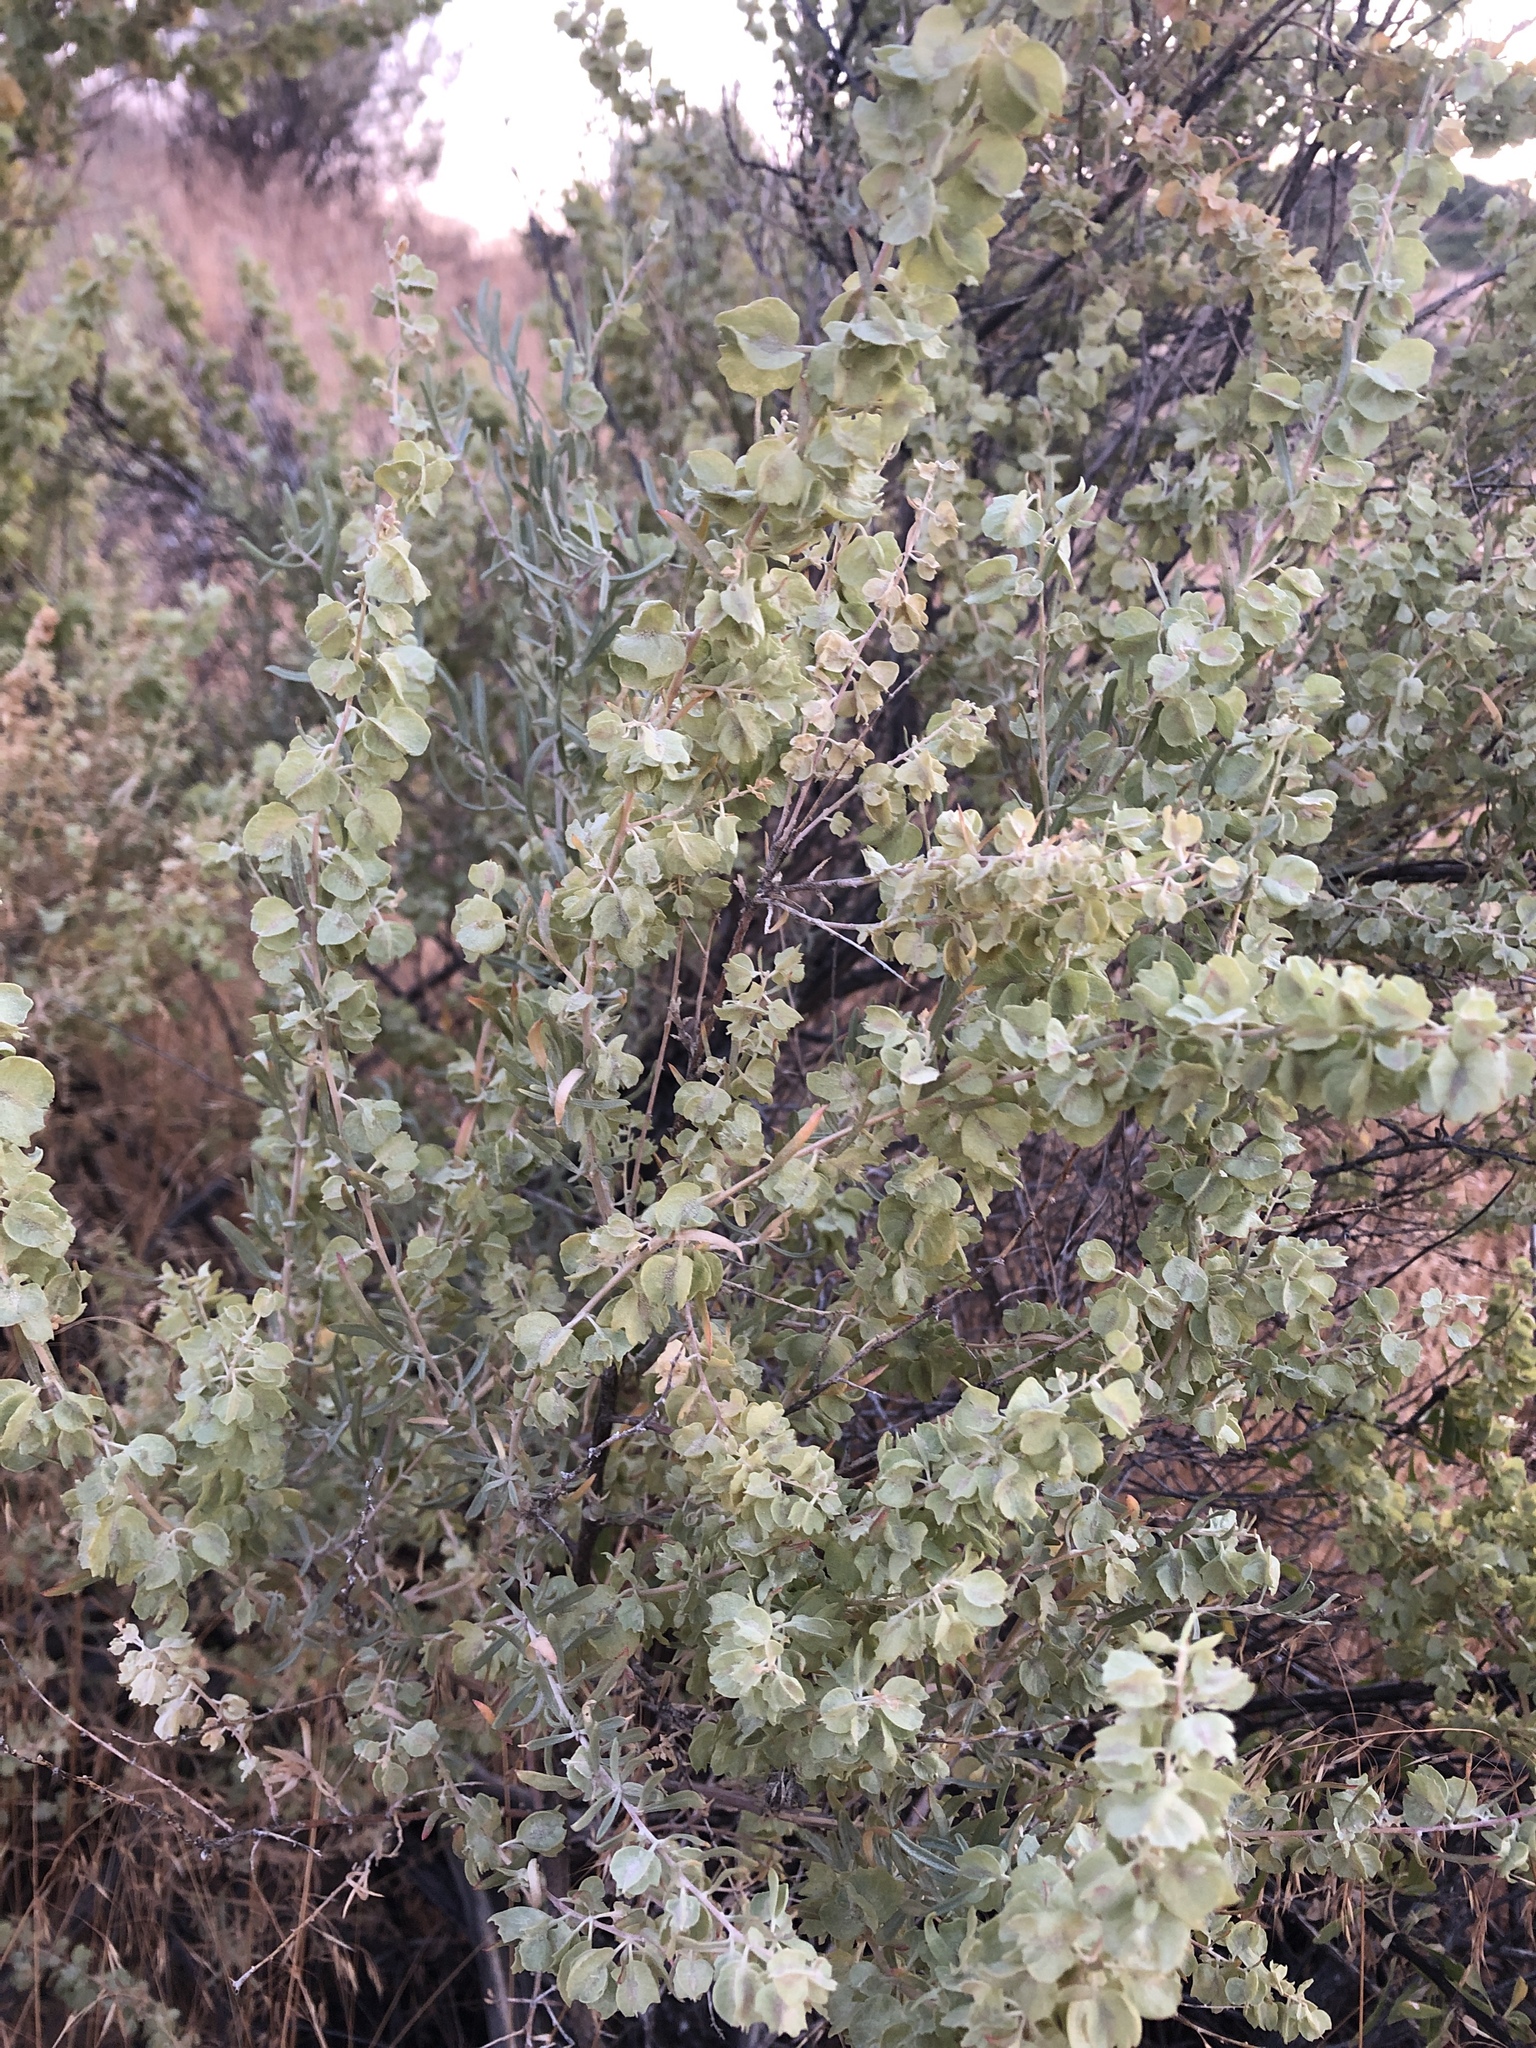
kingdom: Plantae
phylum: Tracheophyta
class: Magnoliopsida
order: Caryophyllales
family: Amaranthaceae
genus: Atriplex
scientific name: Atriplex confertifolia
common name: Shadscale
